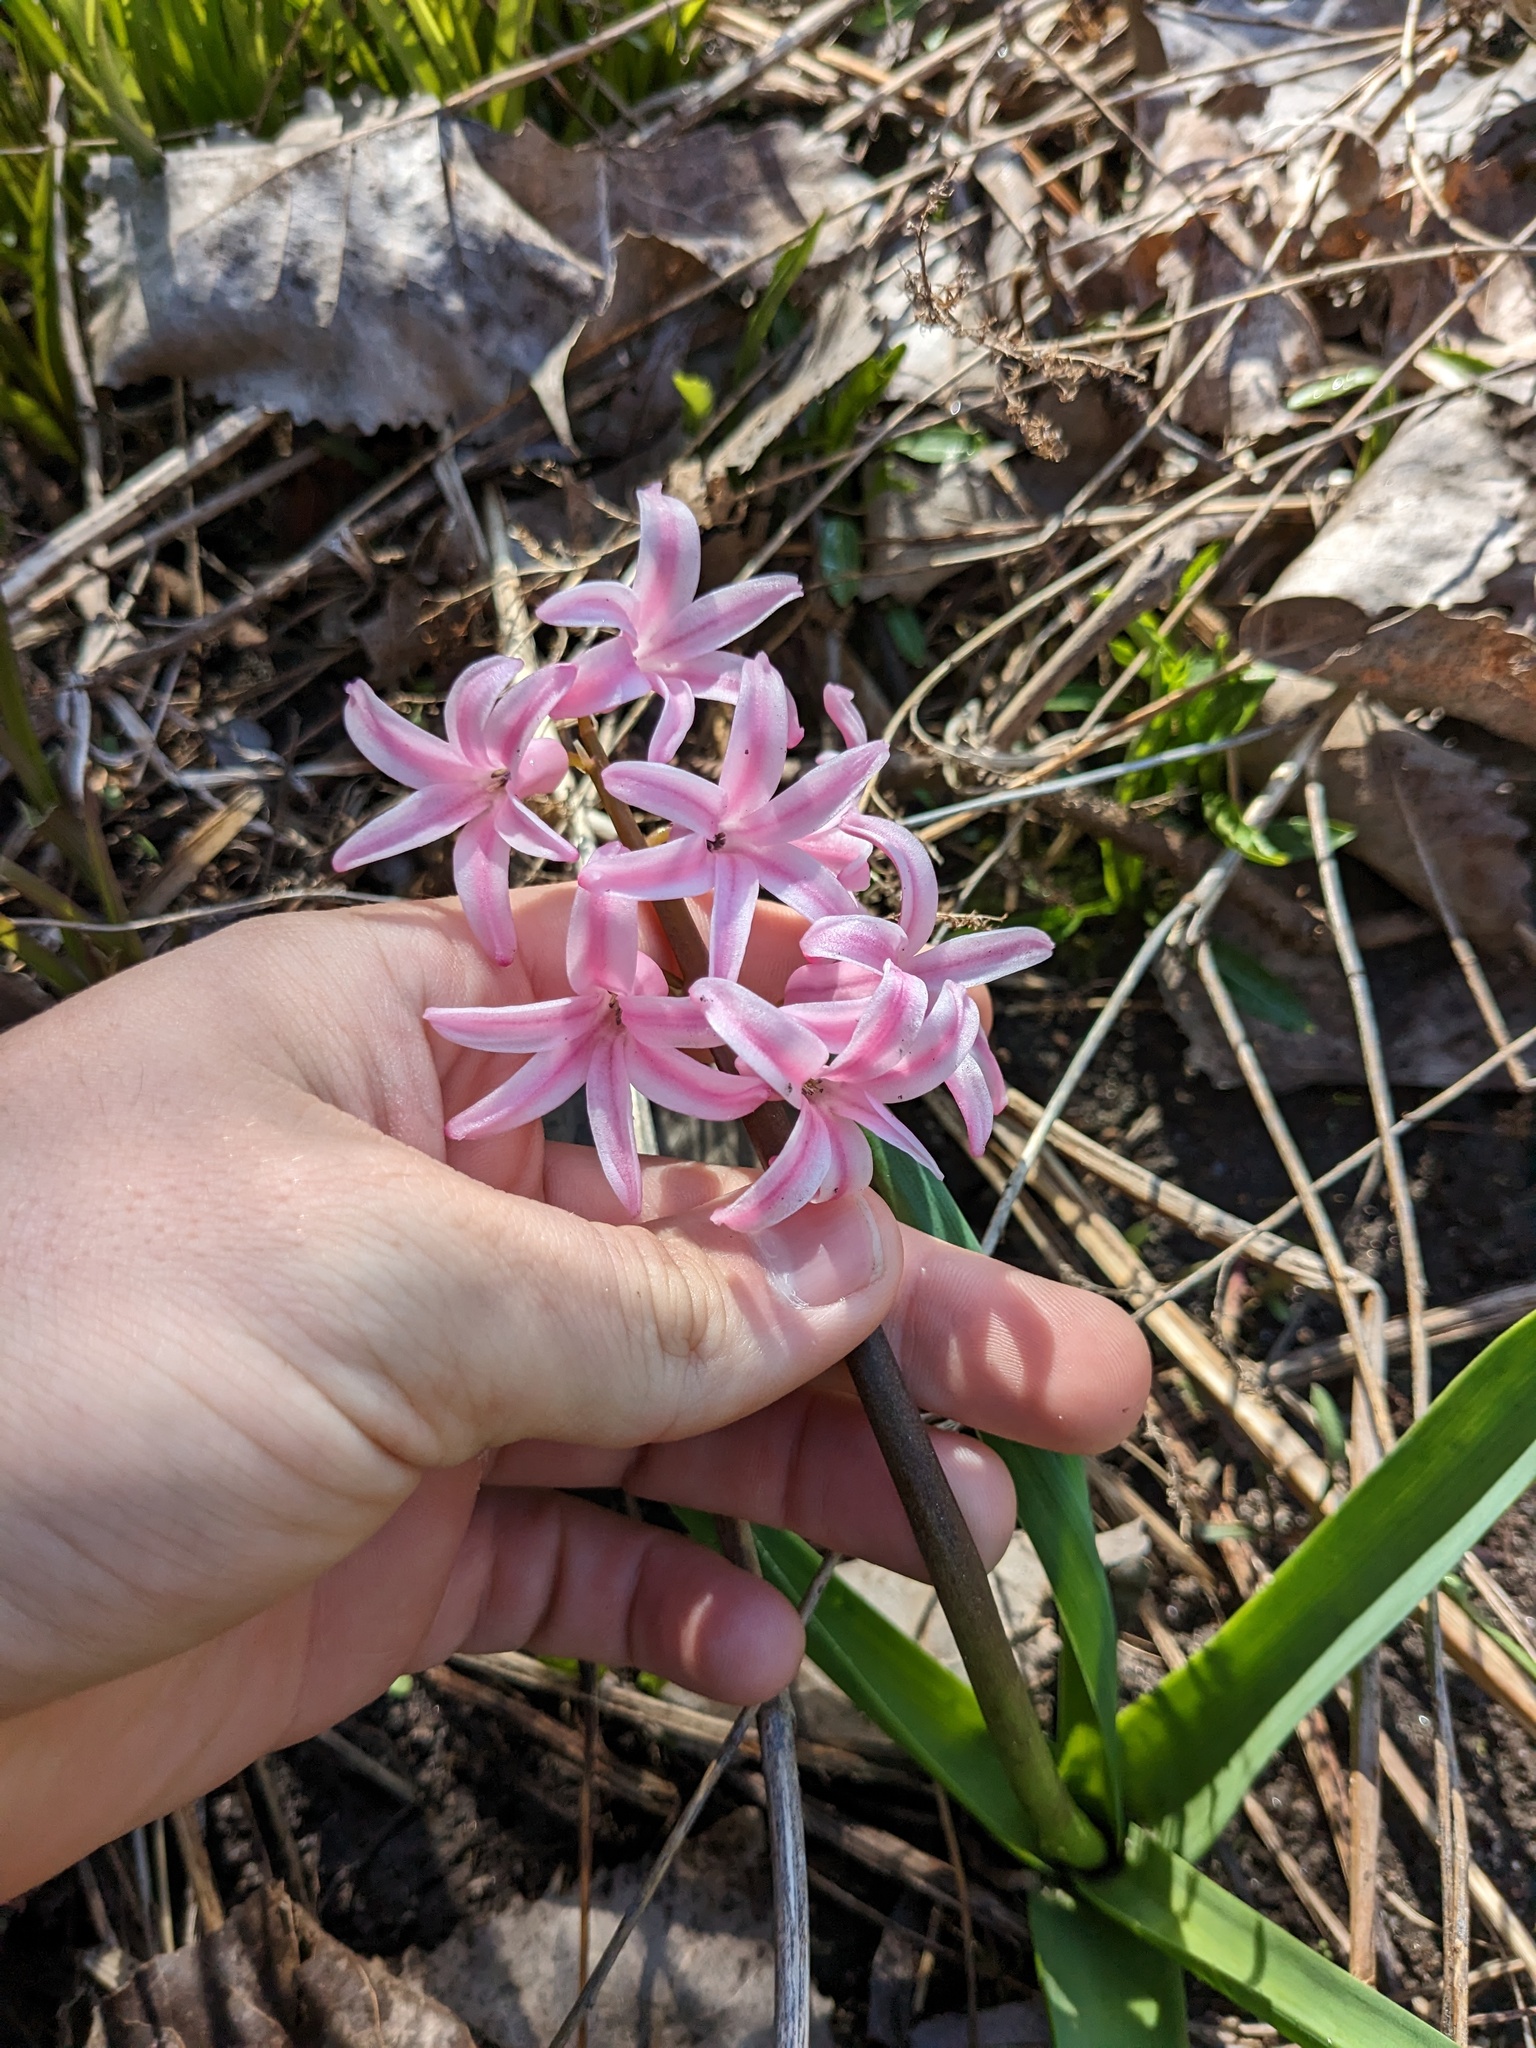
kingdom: Plantae
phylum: Tracheophyta
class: Liliopsida
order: Asparagales
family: Asparagaceae
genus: Hyacinthus
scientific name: Hyacinthus orientalis
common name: Hyacinth
